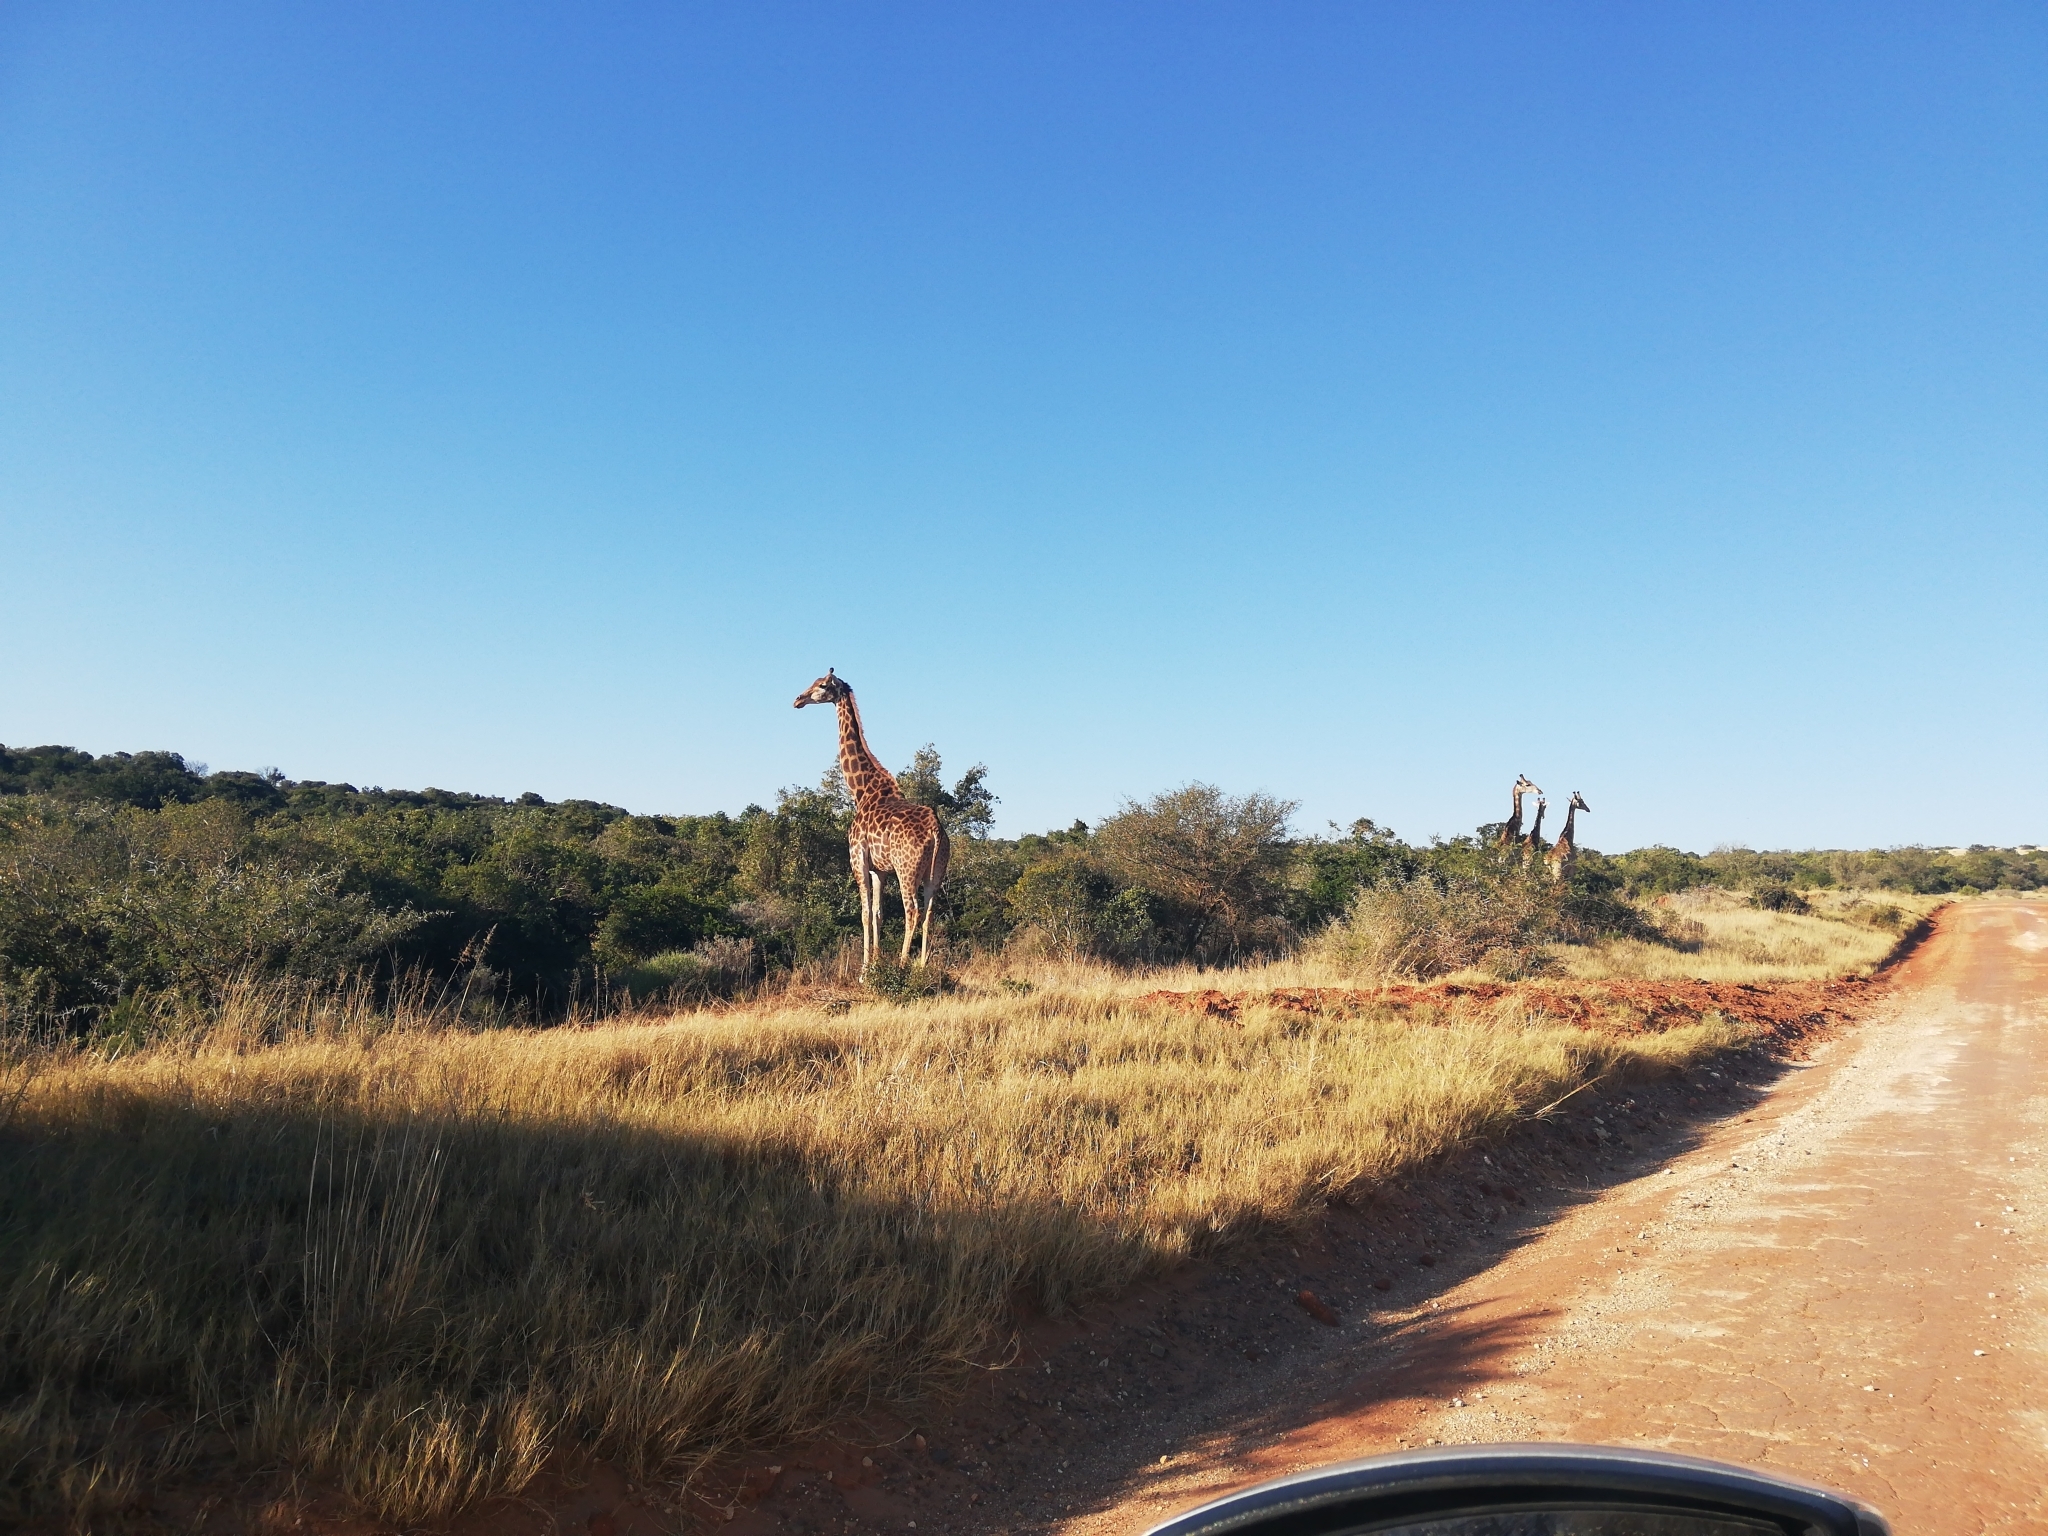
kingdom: Animalia
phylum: Chordata
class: Mammalia
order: Artiodactyla
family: Giraffidae
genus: Giraffa
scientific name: Giraffa giraffa
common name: Southern giraffe
